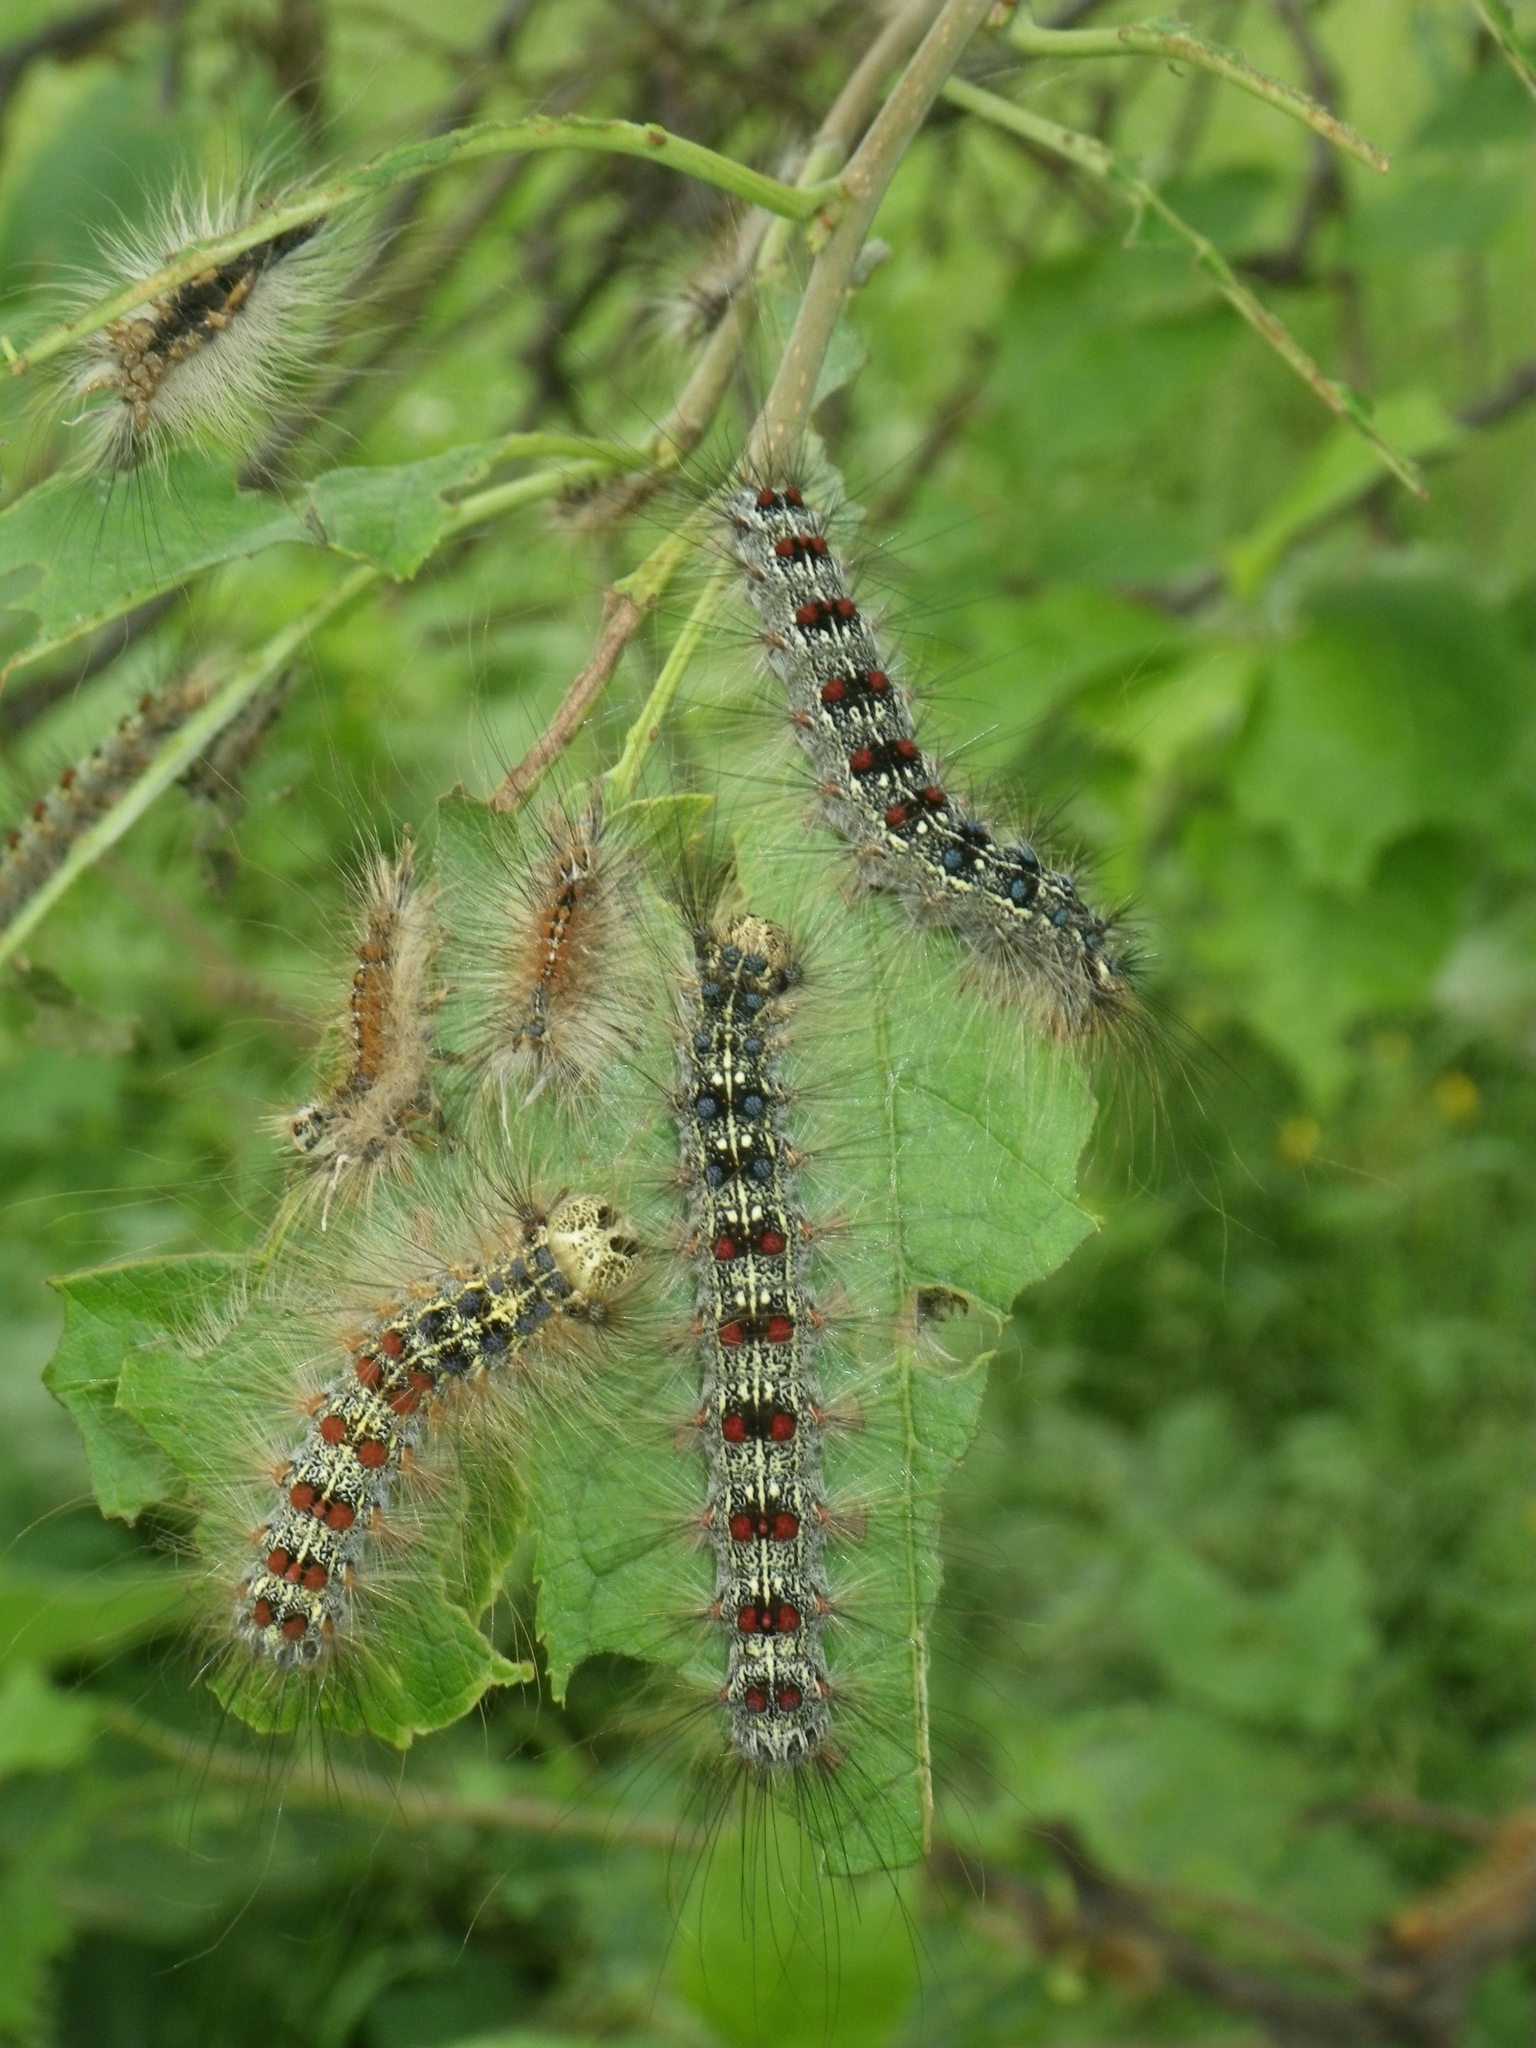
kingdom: Plantae
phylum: Tracheophyta
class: Magnoliopsida
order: Malpighiales
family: Salicaceae
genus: Salix
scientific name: Salix caprea
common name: Goat willow
